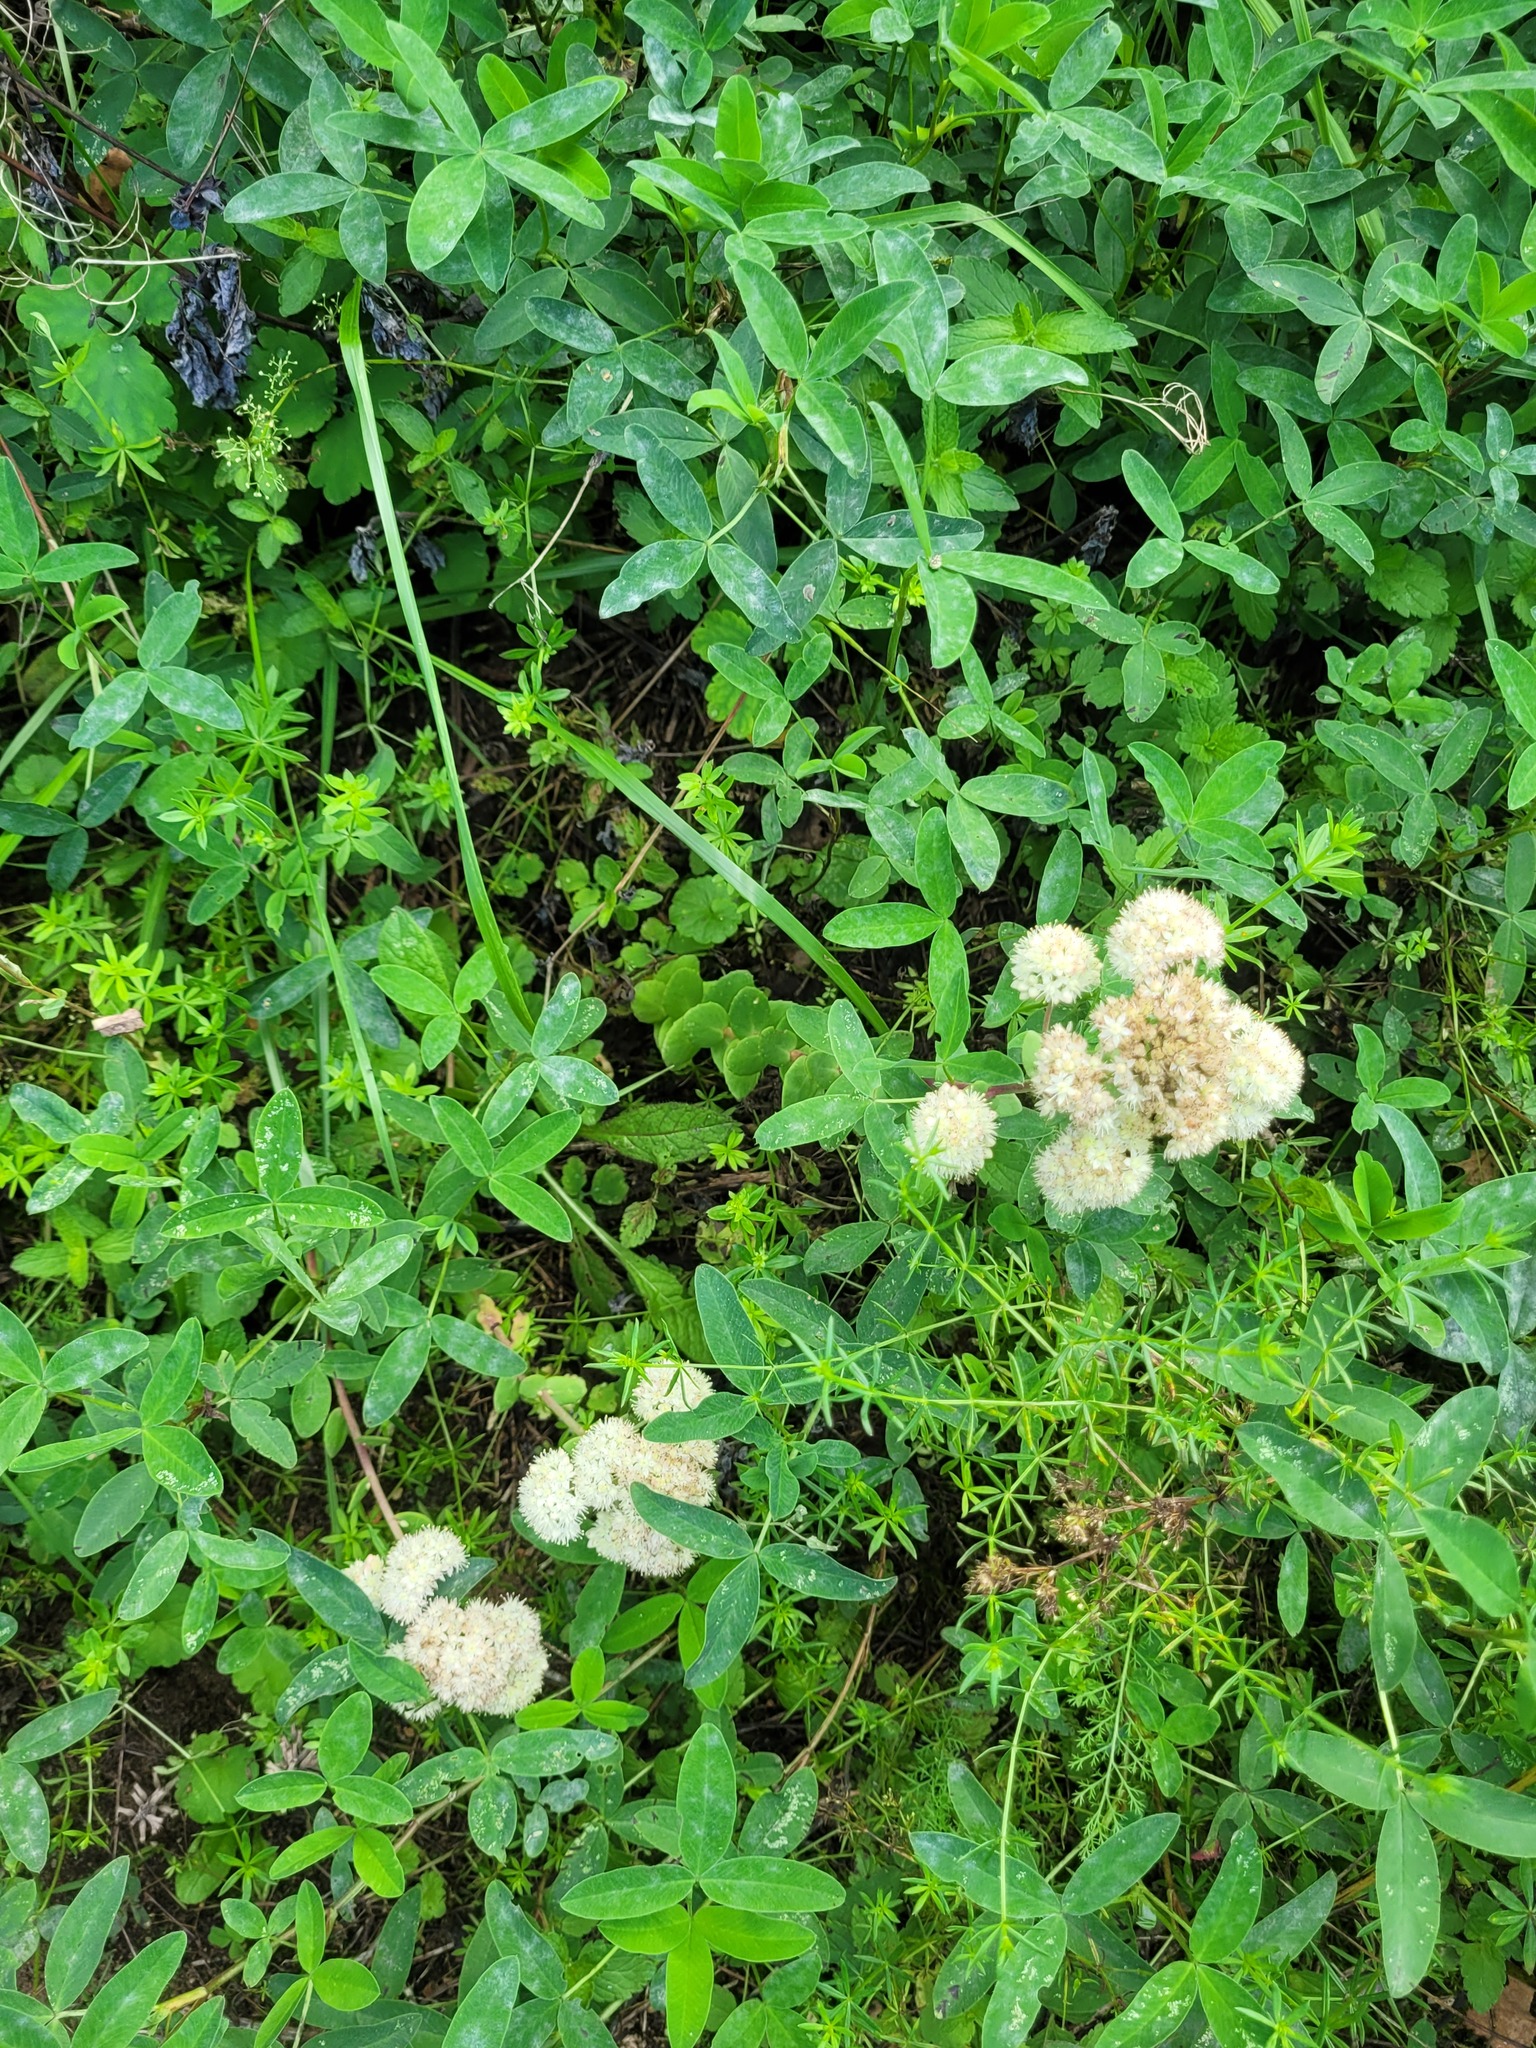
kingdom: Plantae
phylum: Tracheophyta
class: Magnoliopsida
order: Saxifragales
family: Crassulaceae
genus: Hylotelephium
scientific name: Hylotelephium maximum
